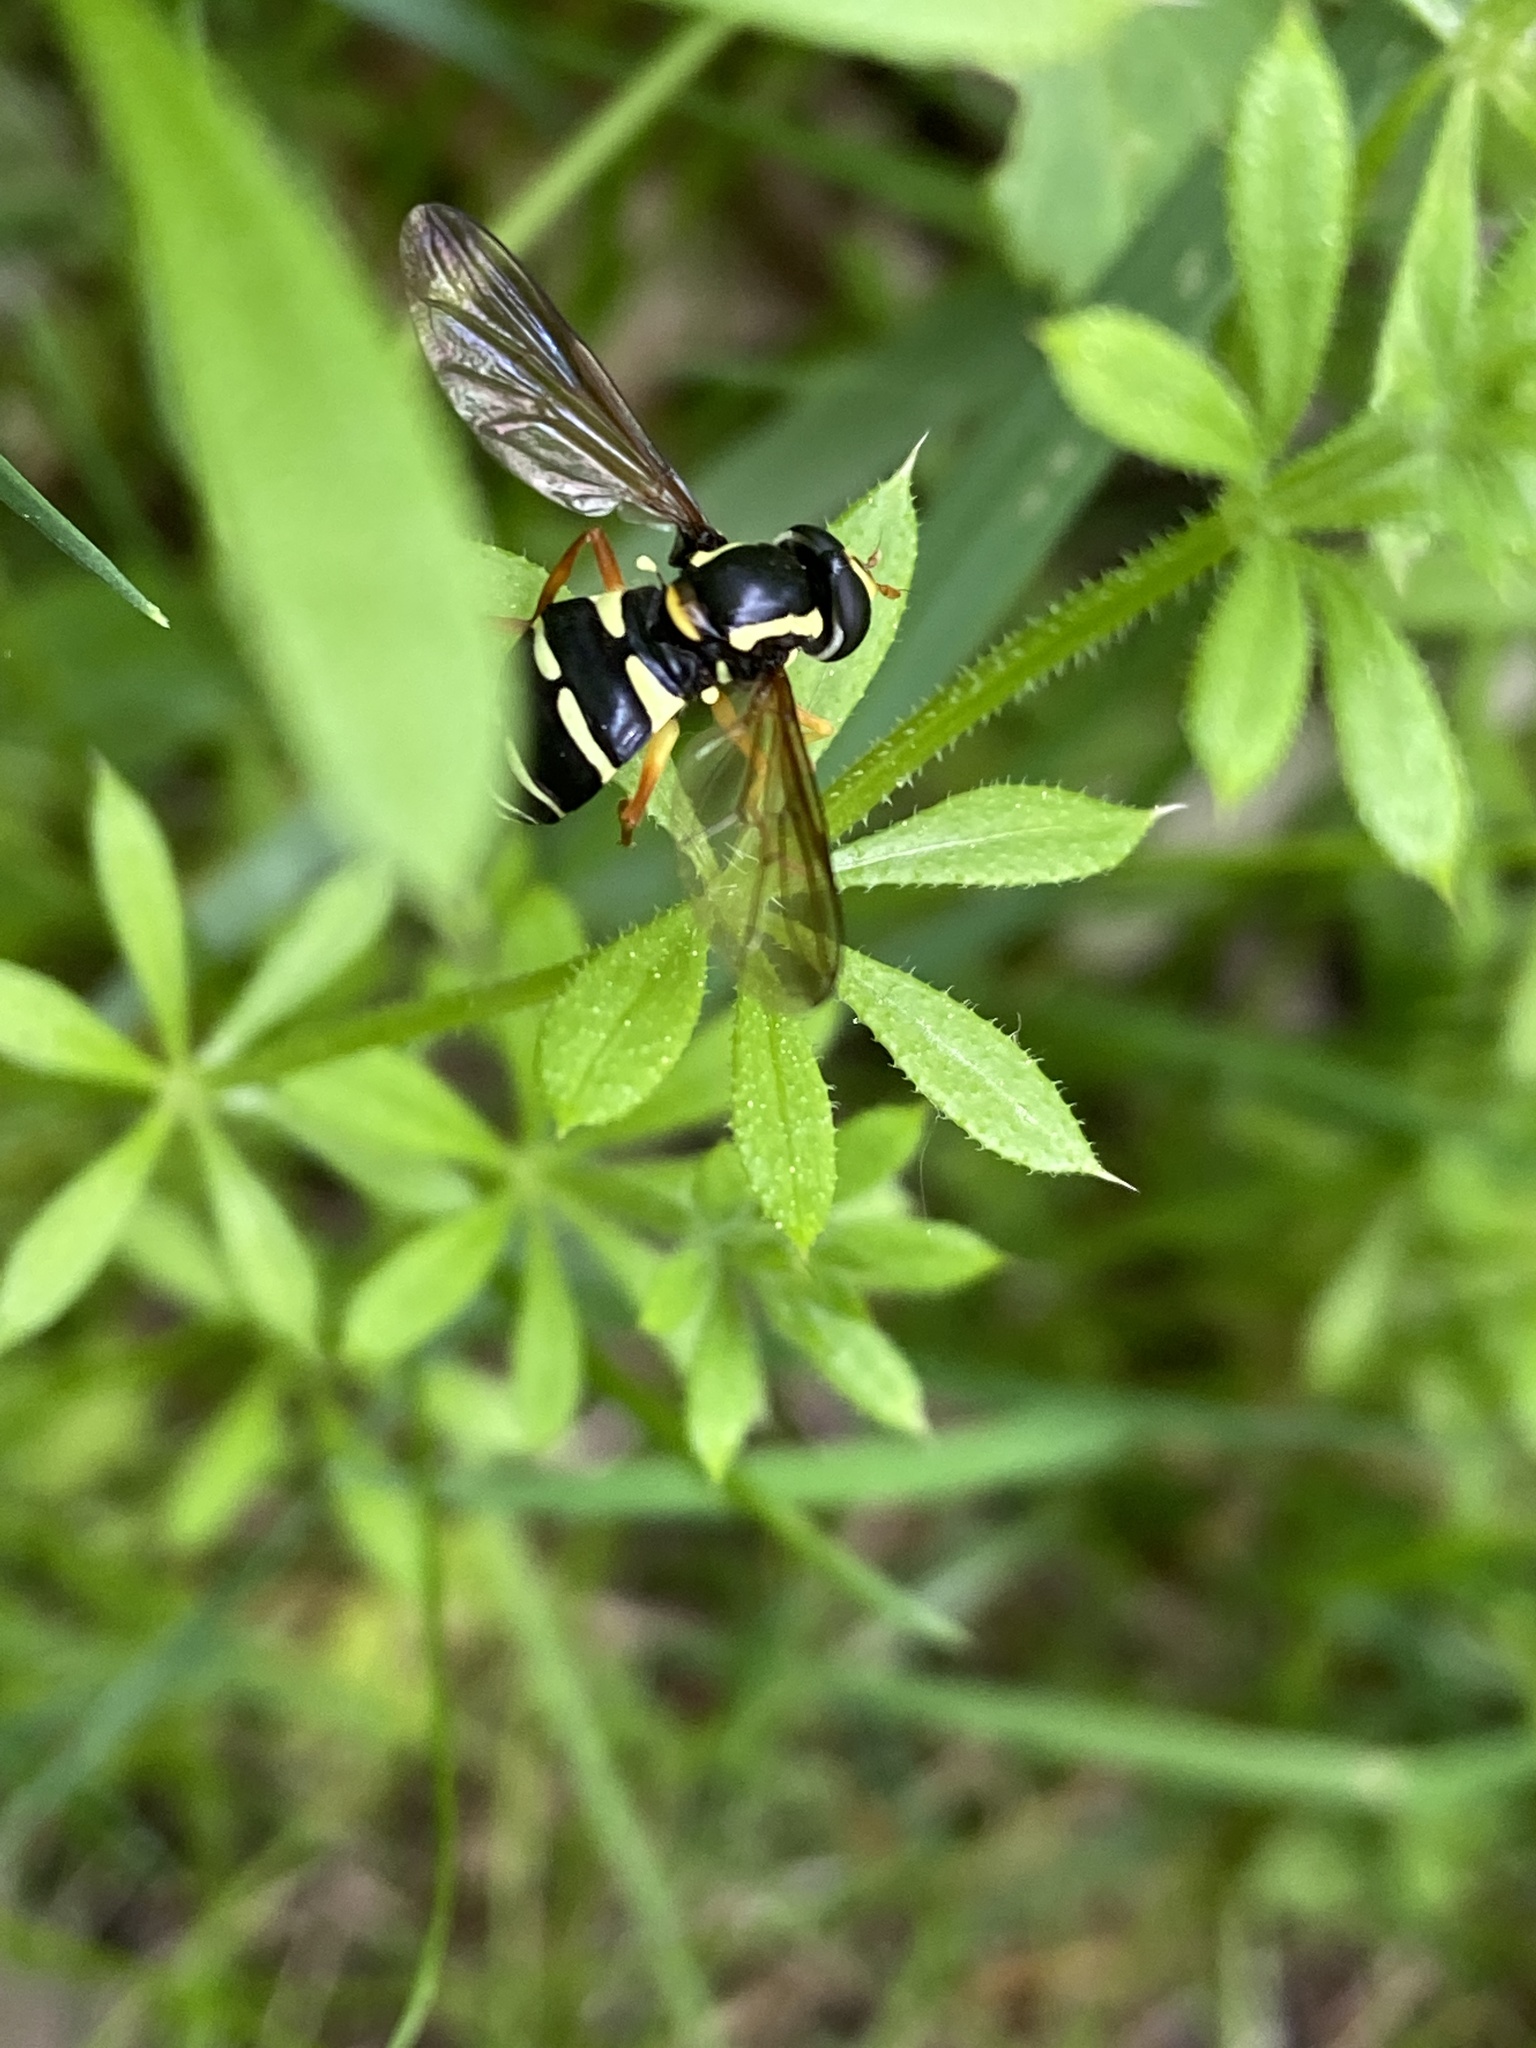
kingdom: Animalia
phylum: Arthropoda
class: Insecta
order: Diptera
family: Syrphidae
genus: Philhelius
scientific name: Philhelius citrofasciata
